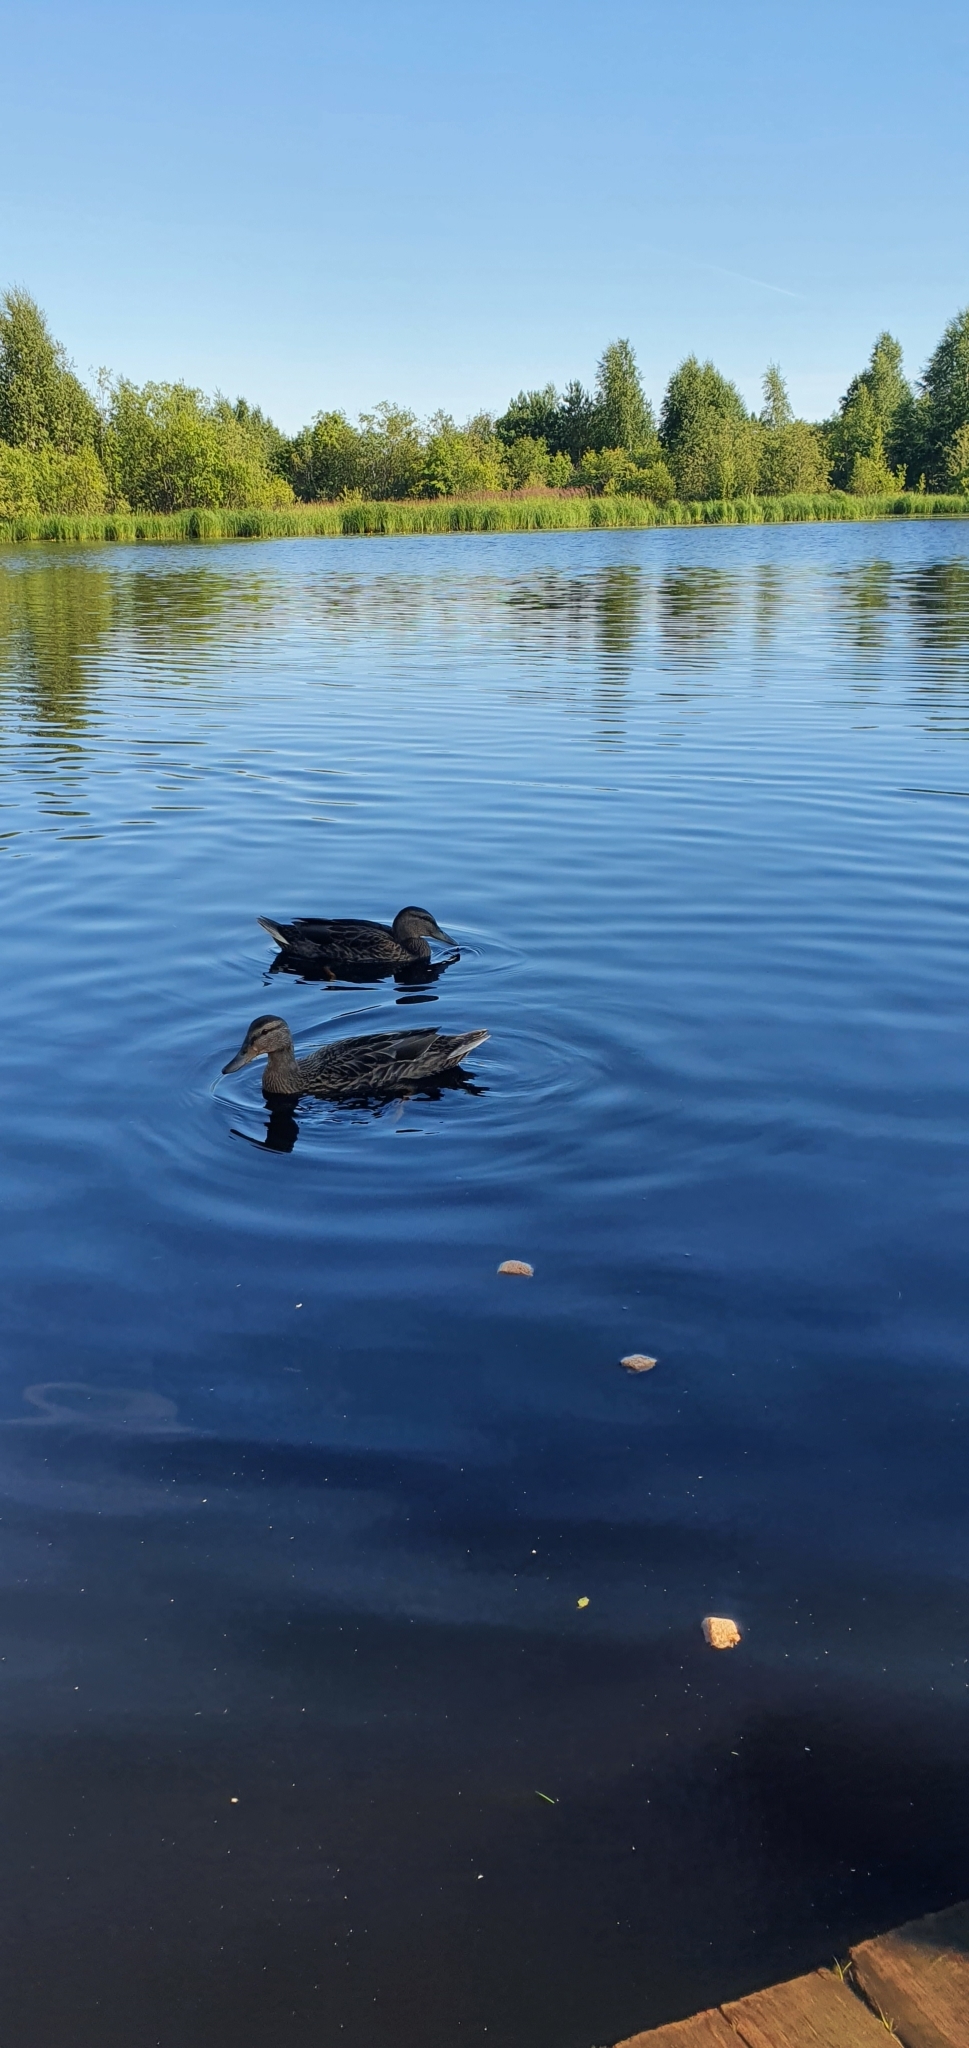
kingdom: Animalia
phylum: Chordata
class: Aves
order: Anseriformes
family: Anatidae
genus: Anas
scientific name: Anas platyrhynchos
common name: Mallard
